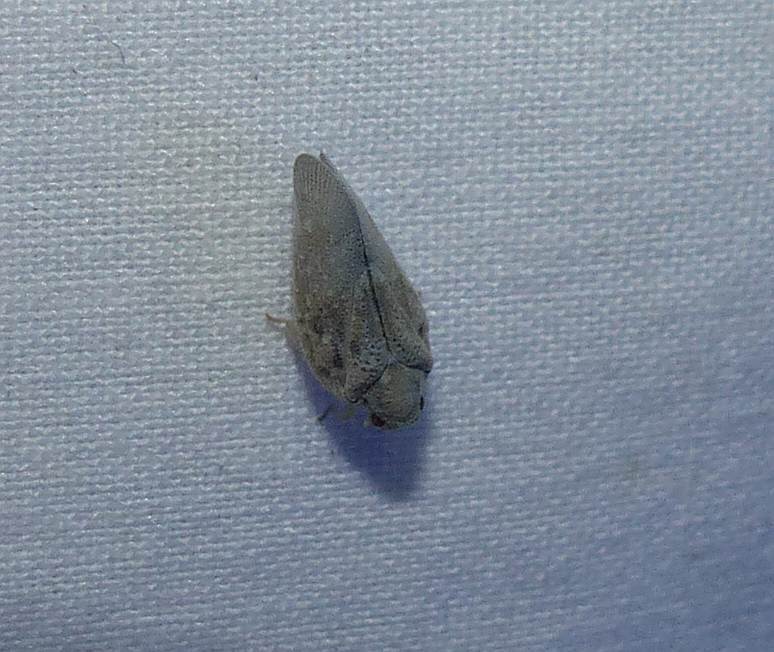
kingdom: Animalia
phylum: Arthropoda
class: Insecta
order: Hemiptera
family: Flatidae
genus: Metcalfa
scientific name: Metcalfa pruinosa
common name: Citrus flatid planthopper
